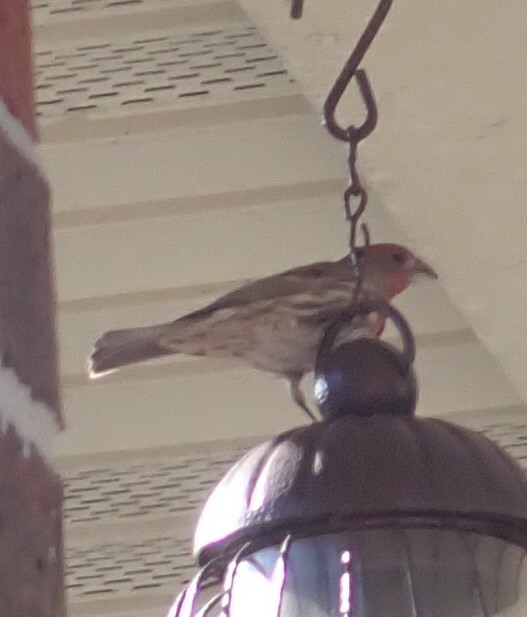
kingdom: Animalia
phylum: Chordata
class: Aves
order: Passeriformes
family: Fringillidae
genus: Haemorhous
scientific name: Haemorhous mexicanus
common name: House finch
